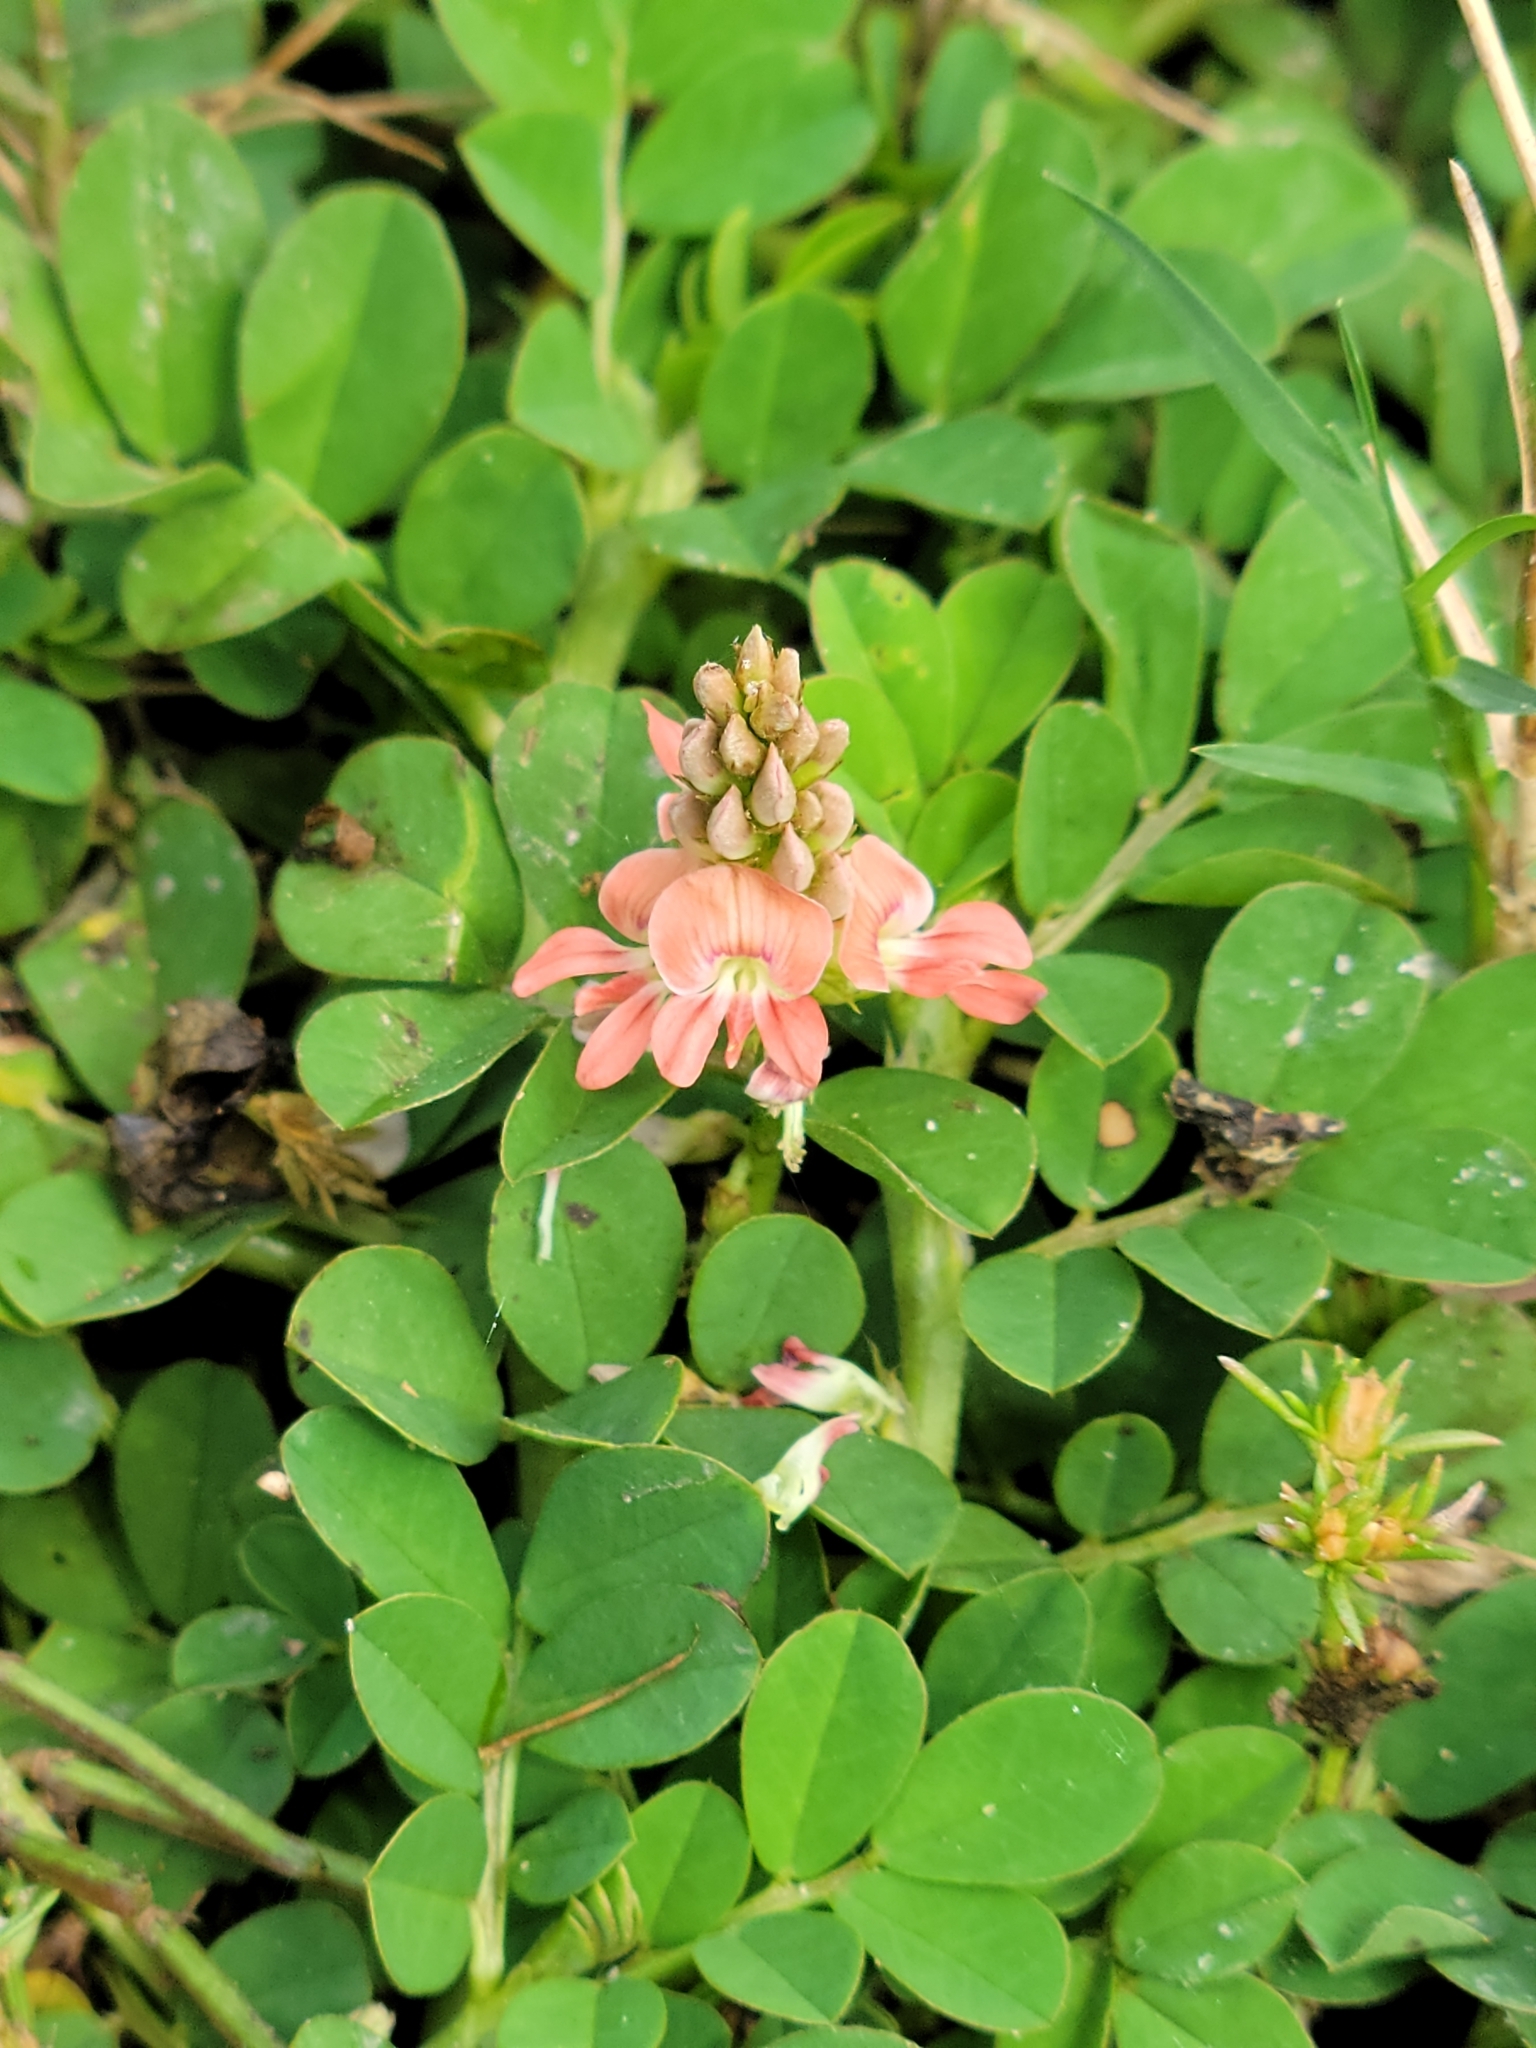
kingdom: Plantae
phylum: Tracheophyta
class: Magnoliopsida
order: Fabales
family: Fabaceae
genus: Indigofera
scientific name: Indigofera spicata
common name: Creeping indigo
